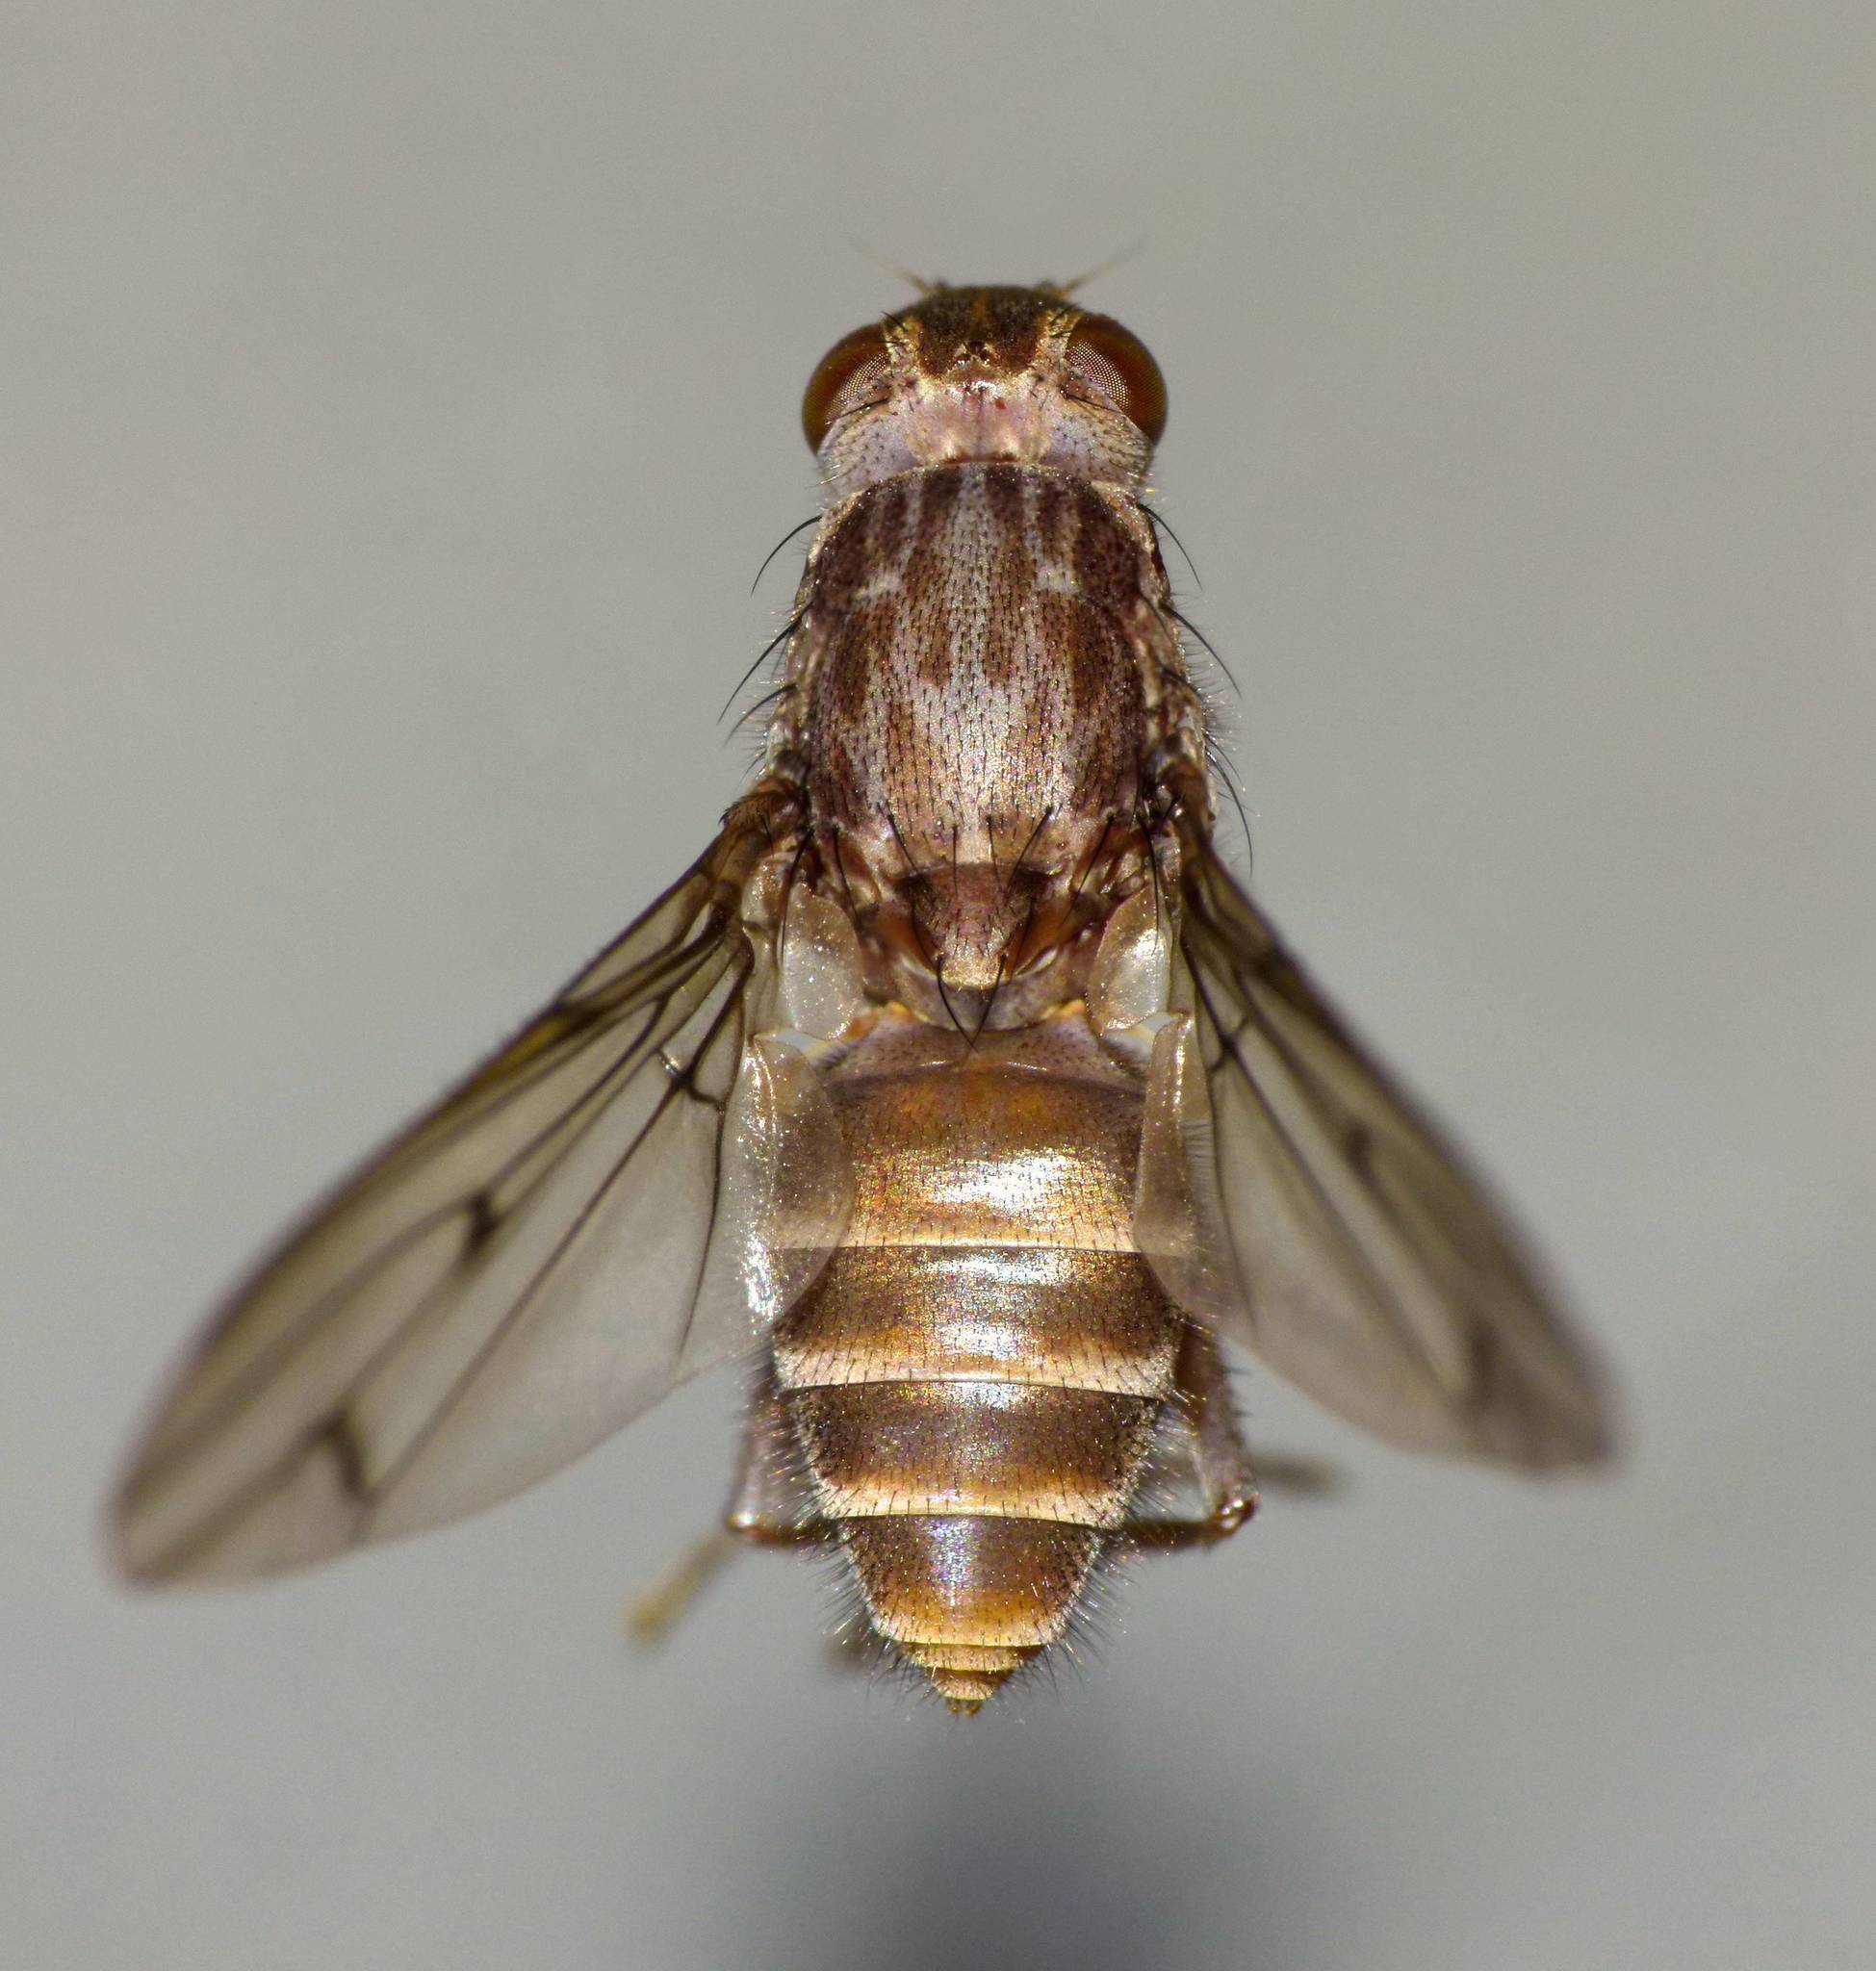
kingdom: Animalia
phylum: Arthropoda
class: Insecta
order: Diptera
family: Helcomyzidae
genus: Maorimyia
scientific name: Maorimyia bipunctata
